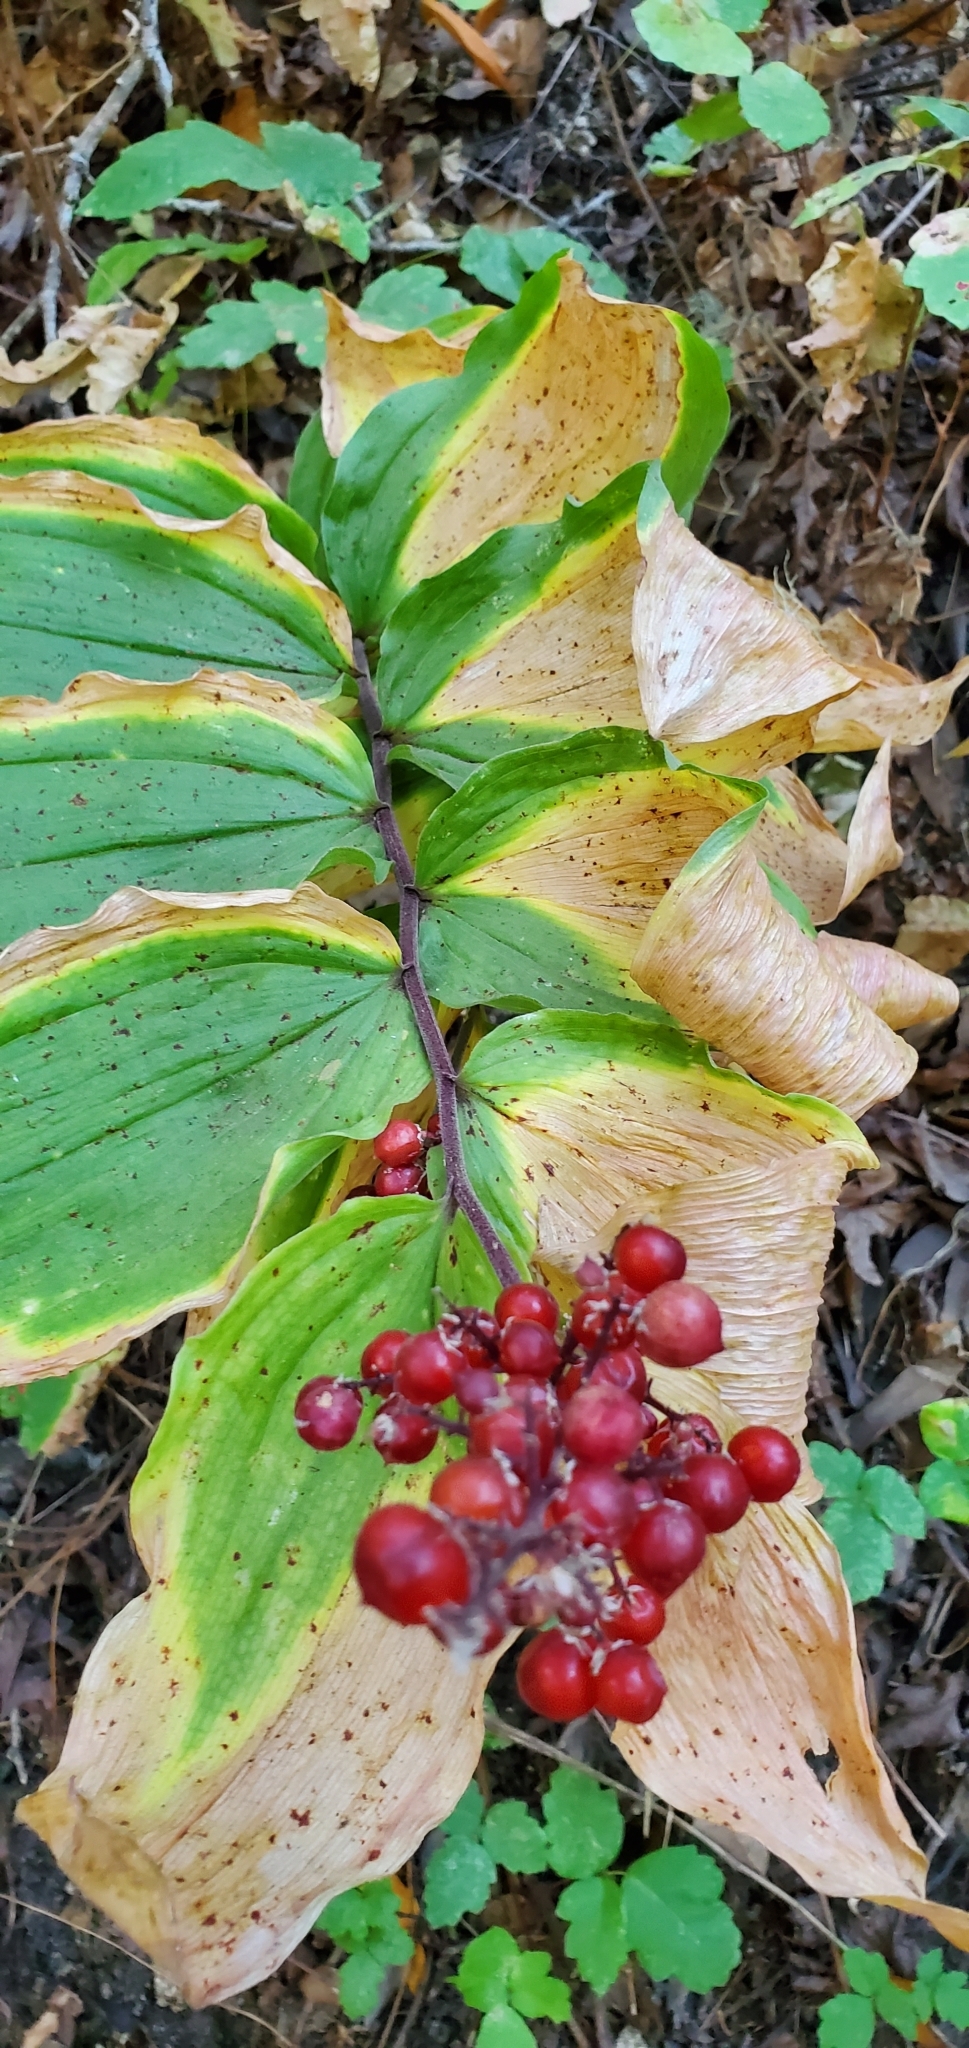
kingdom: Plantae
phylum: Tracheophyta
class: Liliopsida
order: Asparagales
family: Asparagaceae
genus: Maianthemum
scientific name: Maianthemum racemosum
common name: False spikenard
